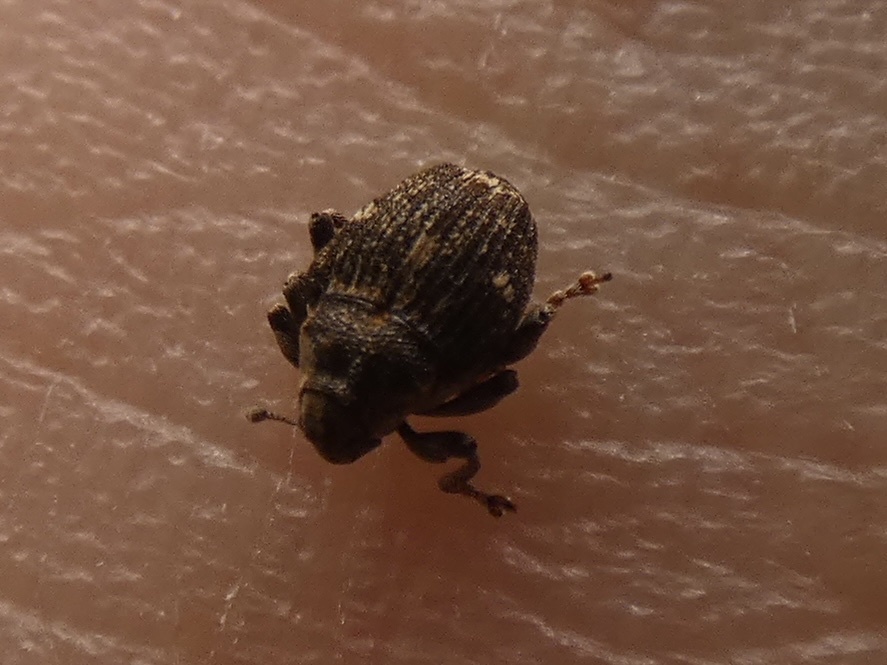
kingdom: Animalia
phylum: Arthropoda
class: Insecta
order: Coleoptera
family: Curculionidae
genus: Nedyus
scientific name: Nedyus quadrimaculatus
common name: Small nettle weevil
